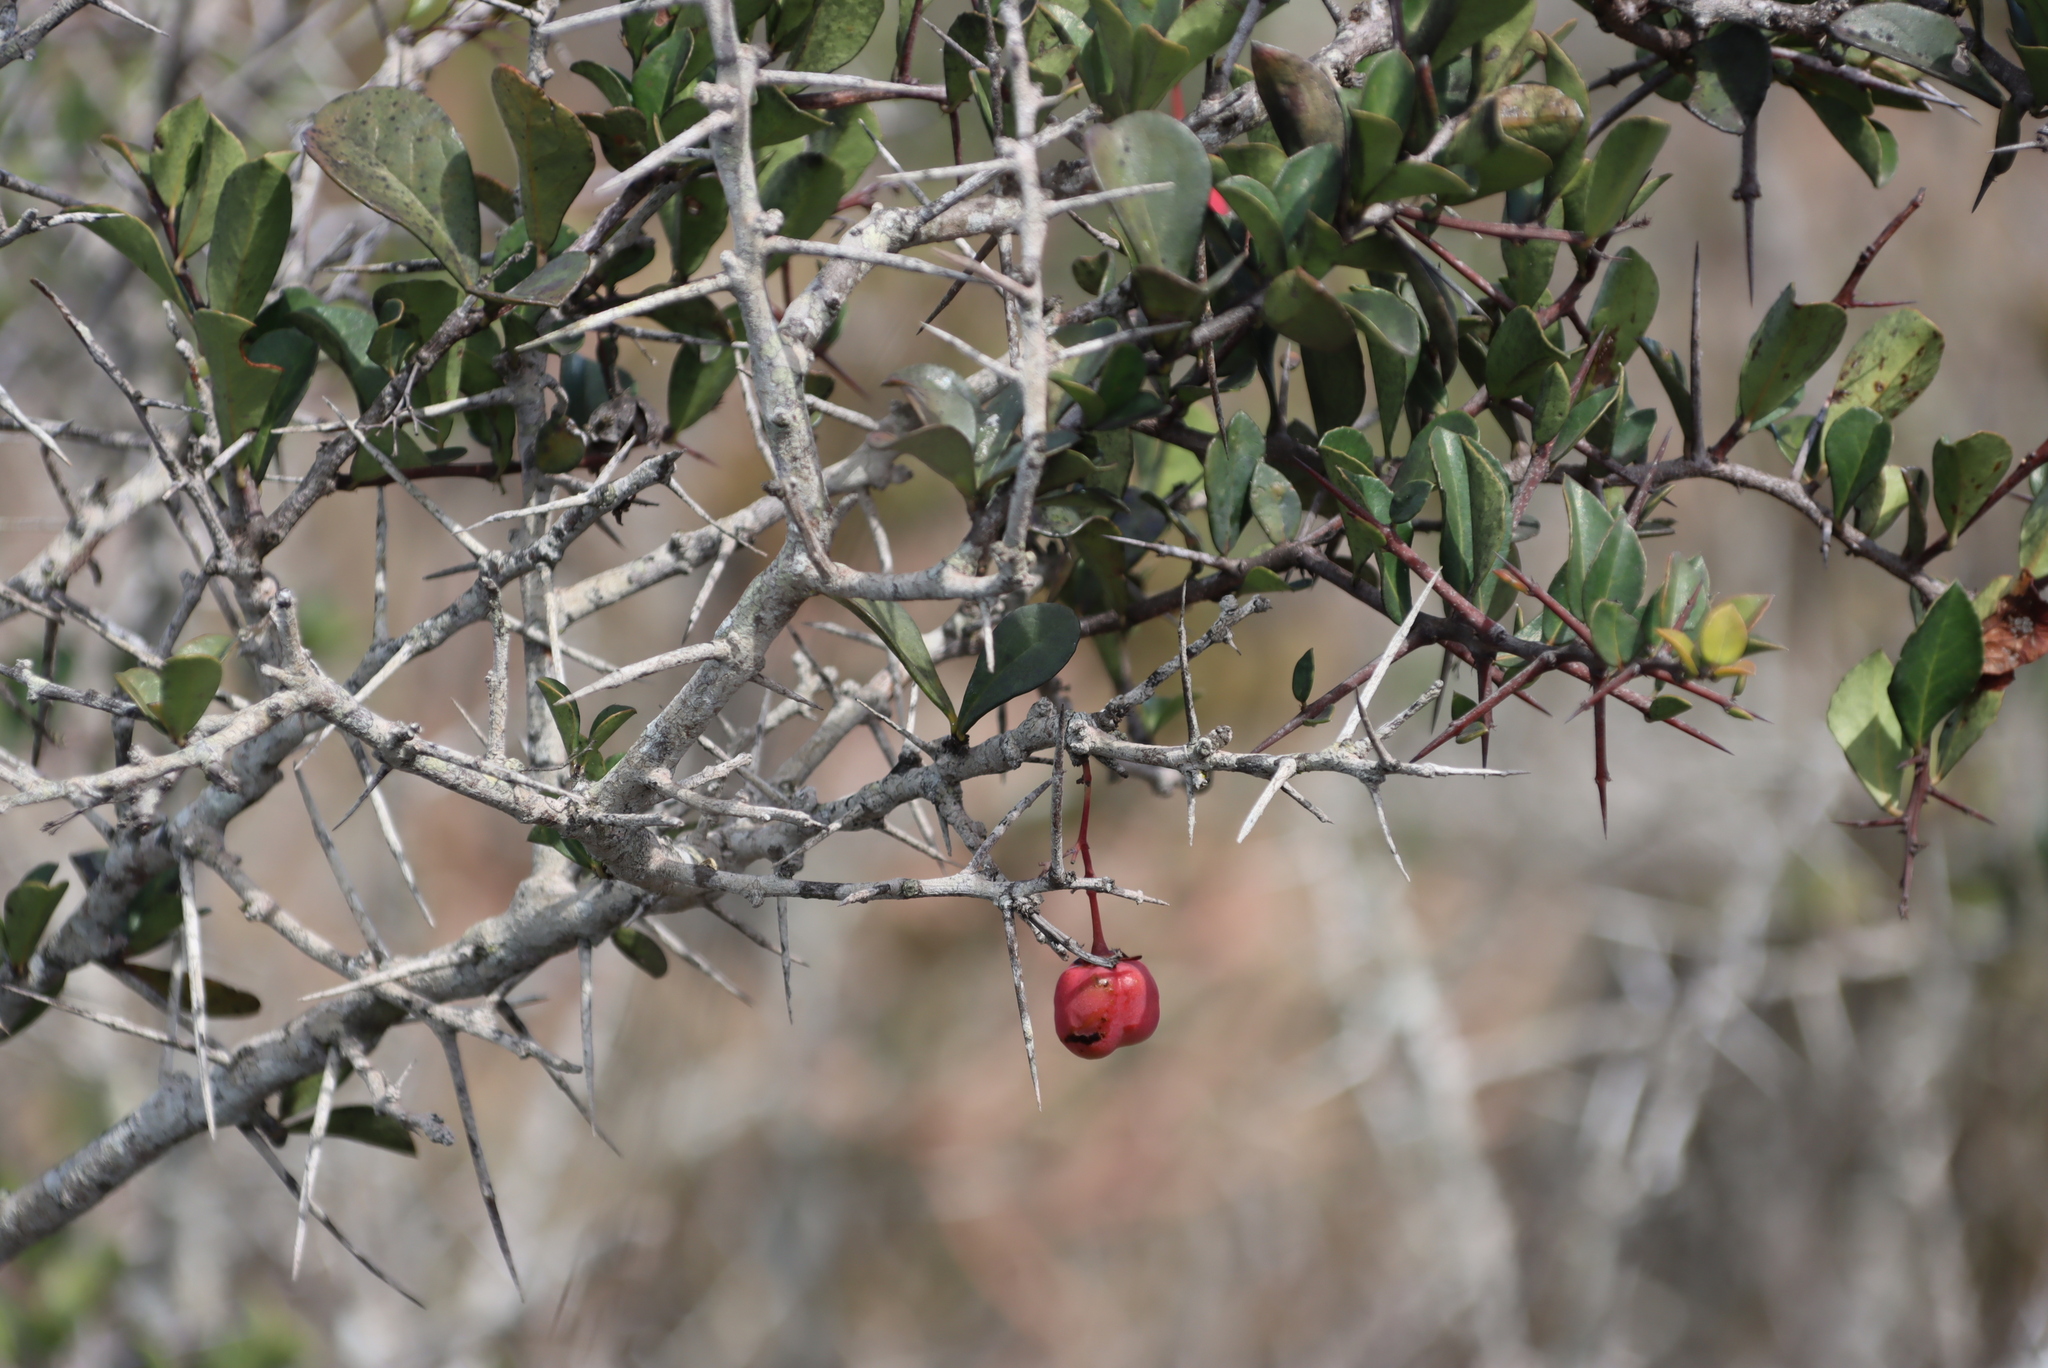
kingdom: Plantae
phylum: Tracheophyta
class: Magnoliopsida
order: Celastrales
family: Celastraceae
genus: Putterlickia
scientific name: Putterlickia pyracantha
